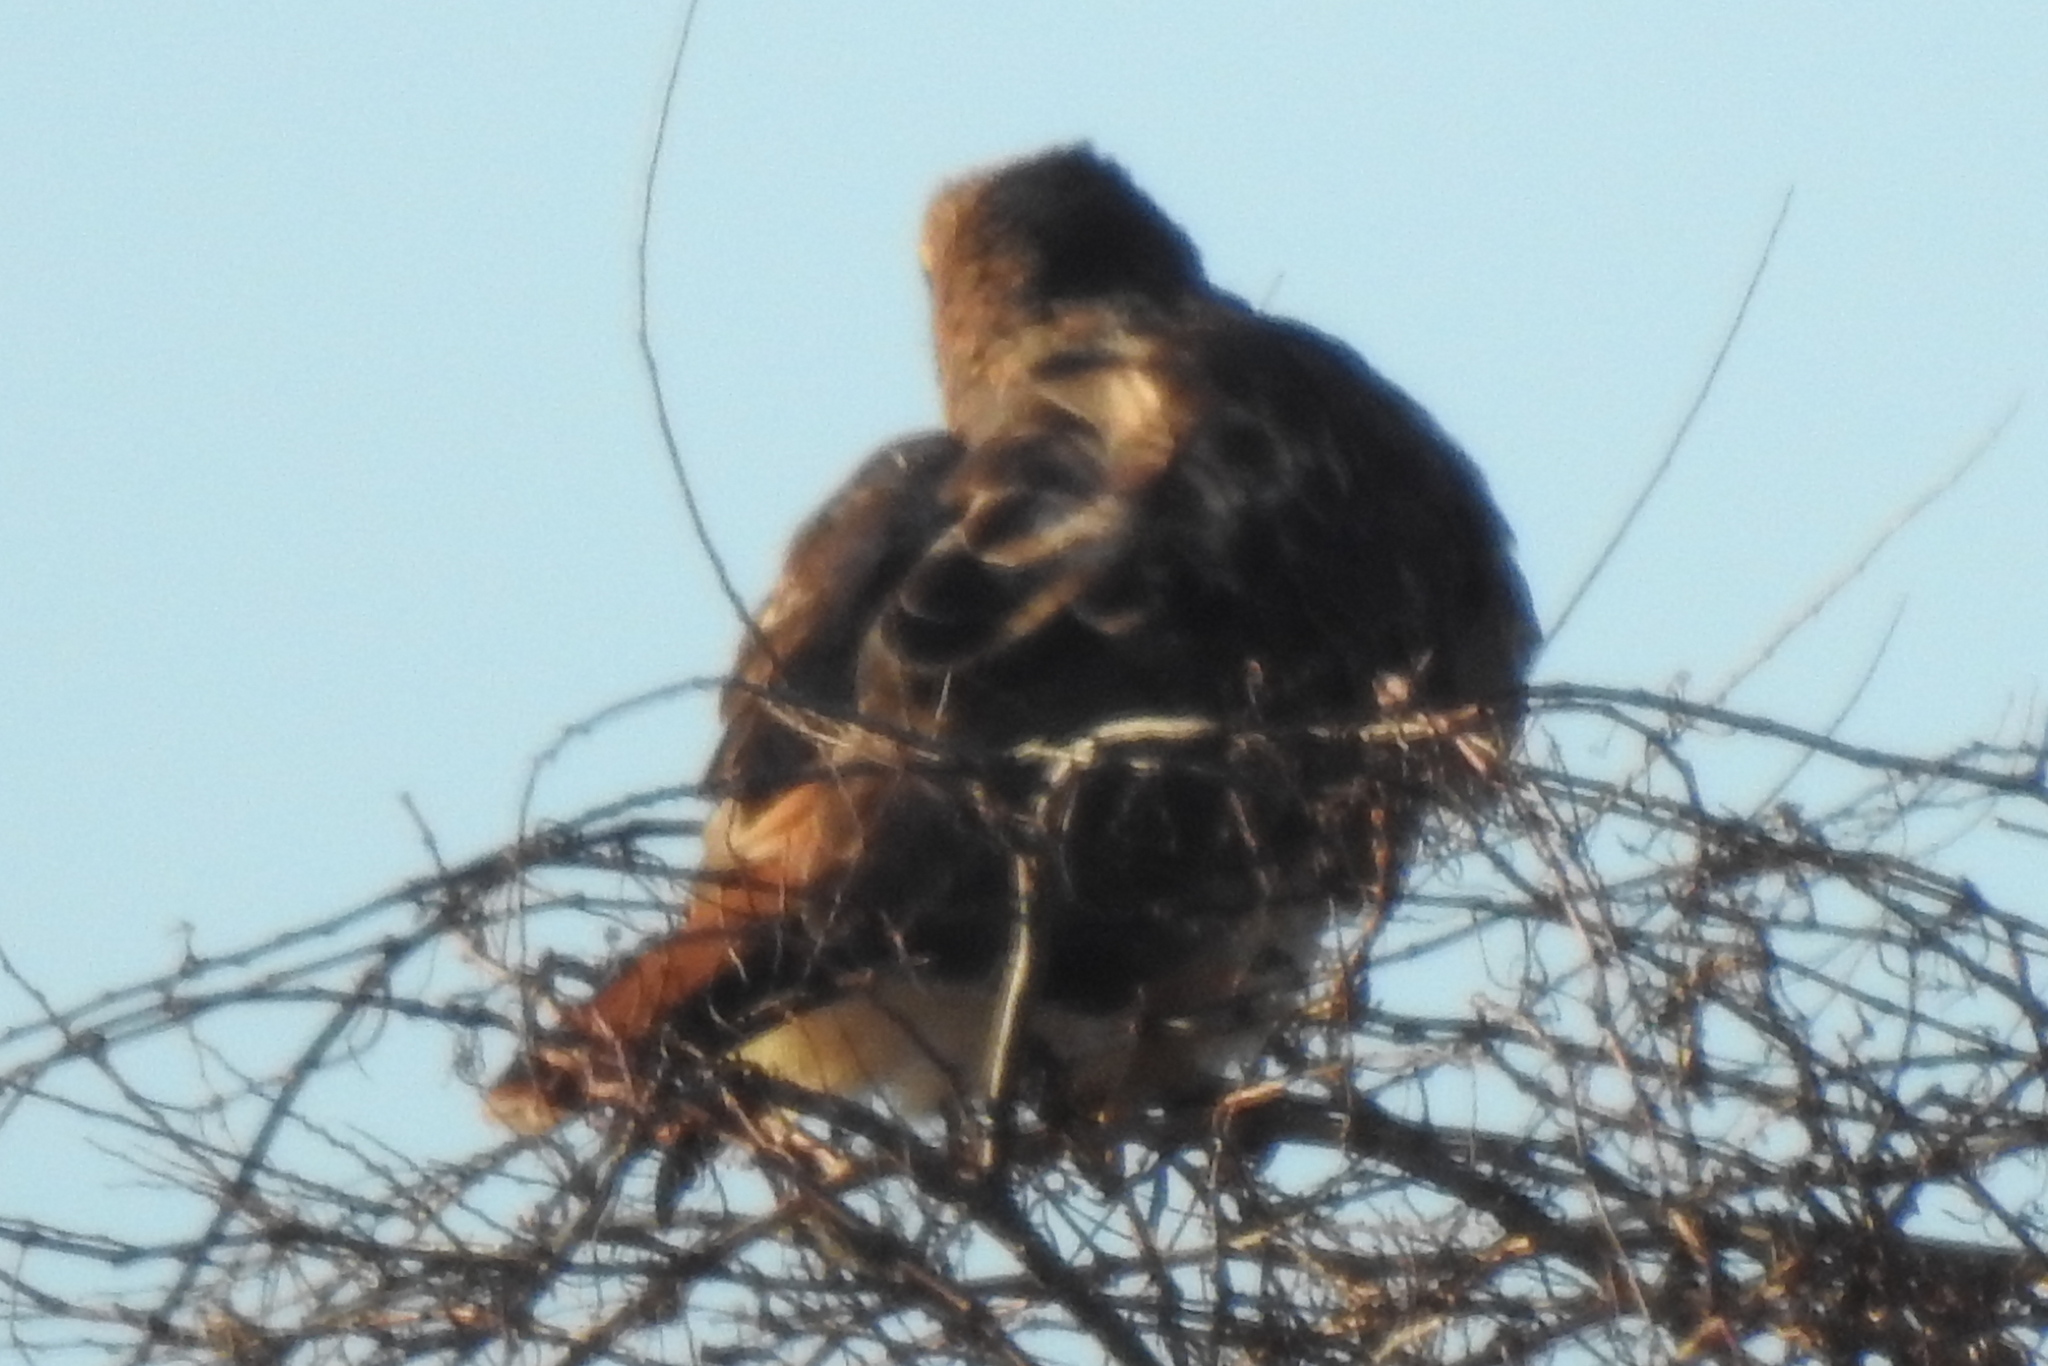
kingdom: Animalia
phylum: Chordata
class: Aves
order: Accipitriformes
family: Accipitridae
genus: Buteo
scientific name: Buteo jamaicensis
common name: Red-tailed hawk
